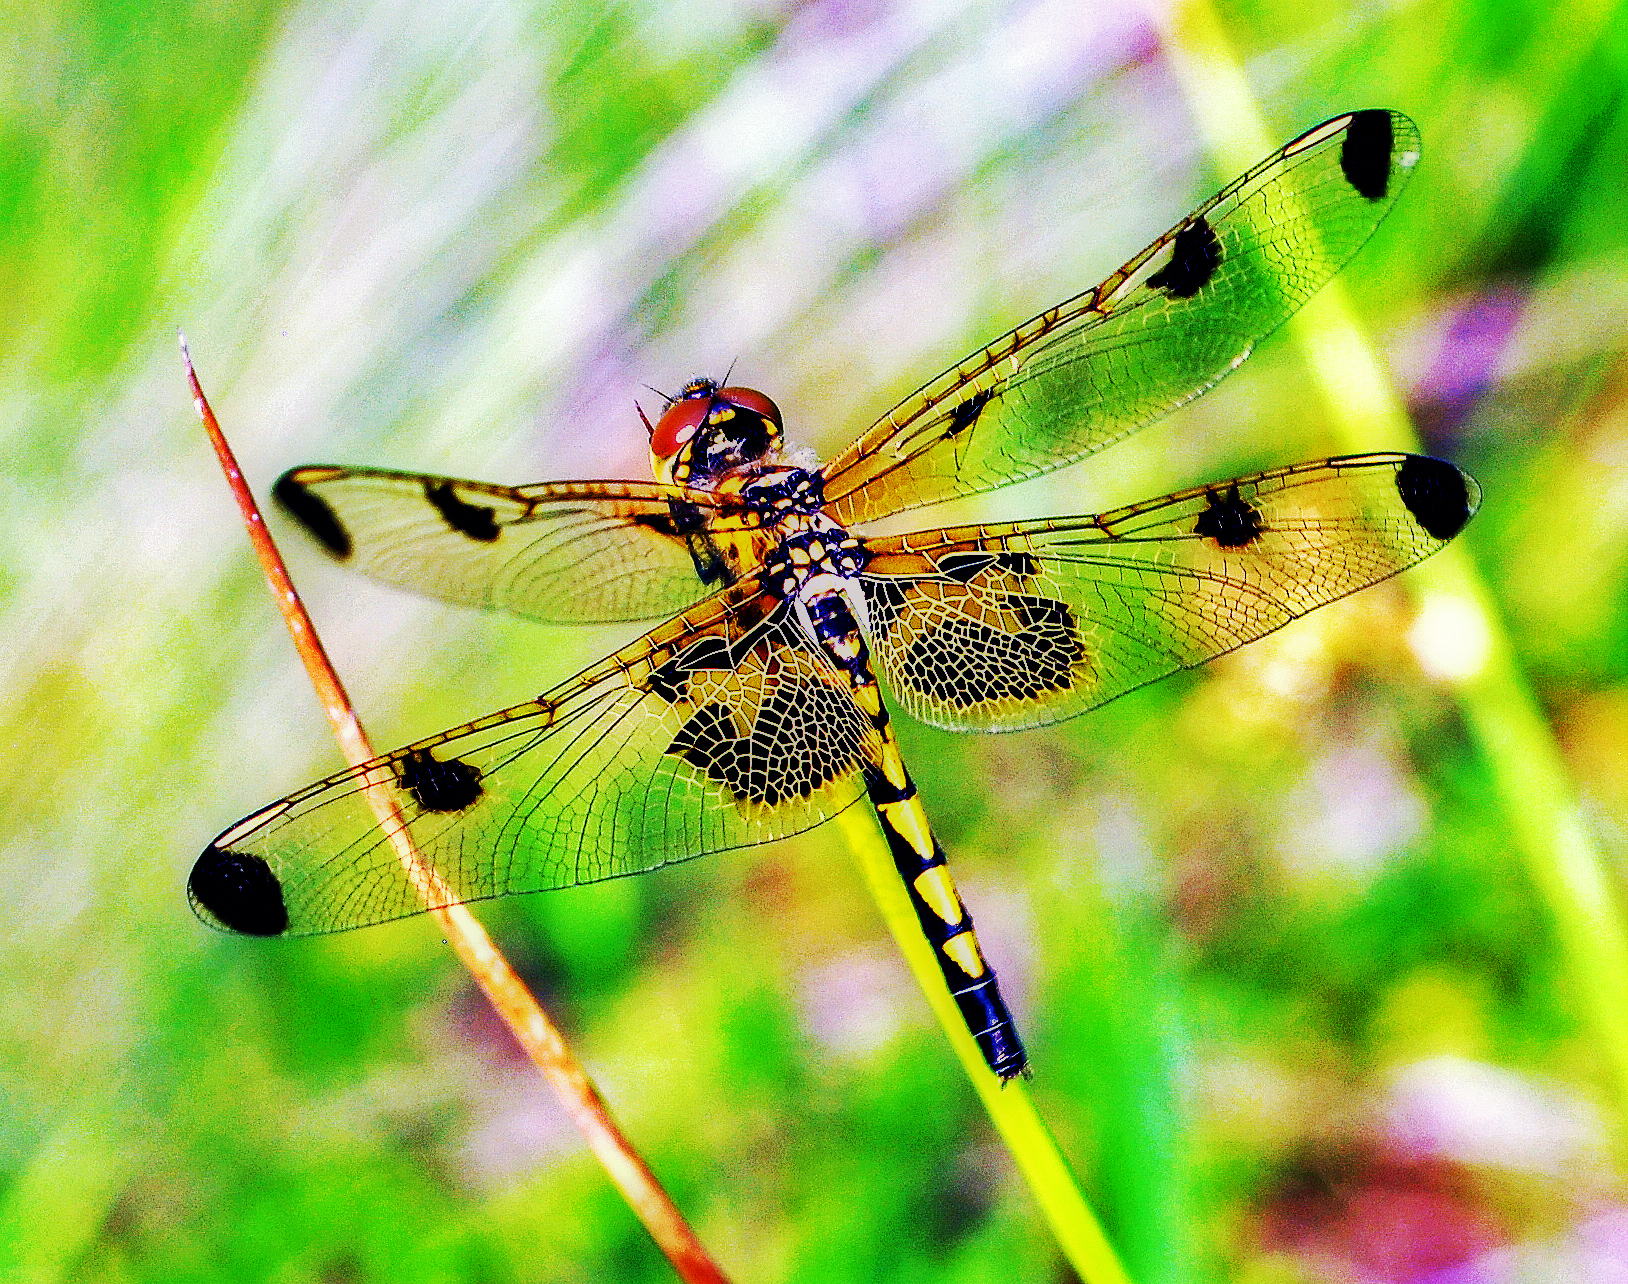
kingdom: Animalia
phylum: Arthropoda
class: Insecta
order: Odonata
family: Libellulidae
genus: Celithemis
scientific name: Celithemis elisa
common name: Calico pennant
